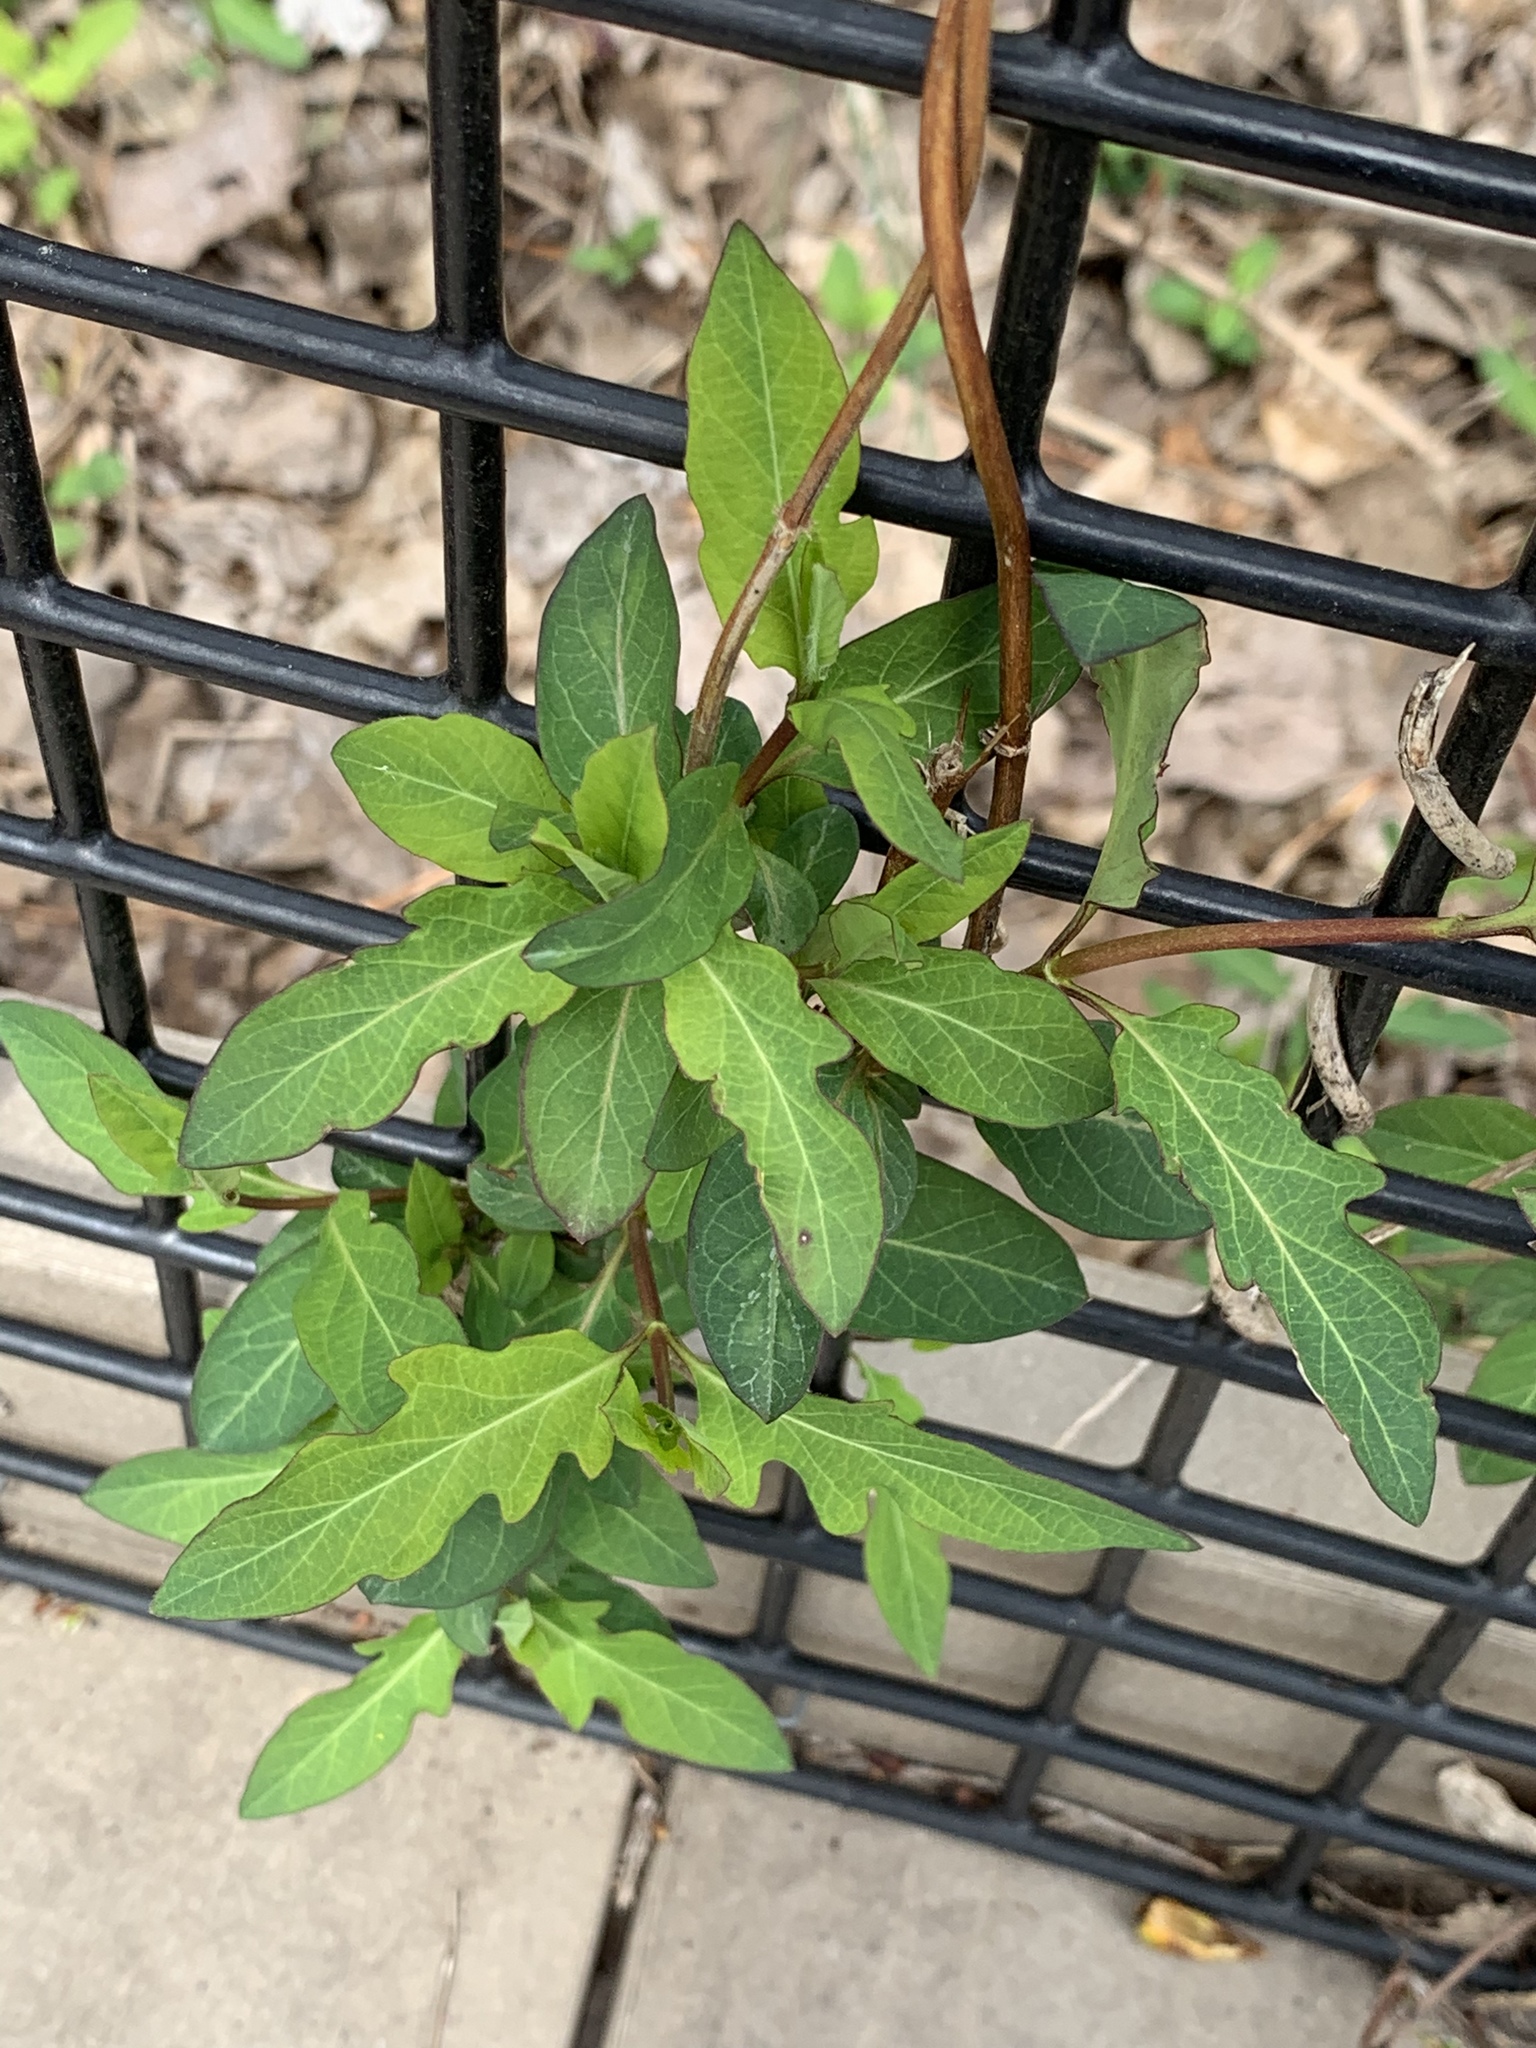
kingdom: Plantae
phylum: Tracheophyta
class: Magnoliopsida
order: Dipsacales
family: Caprifoliaceae
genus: Lonicera
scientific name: Lonicera japonica
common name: Japanese honeysuckle
